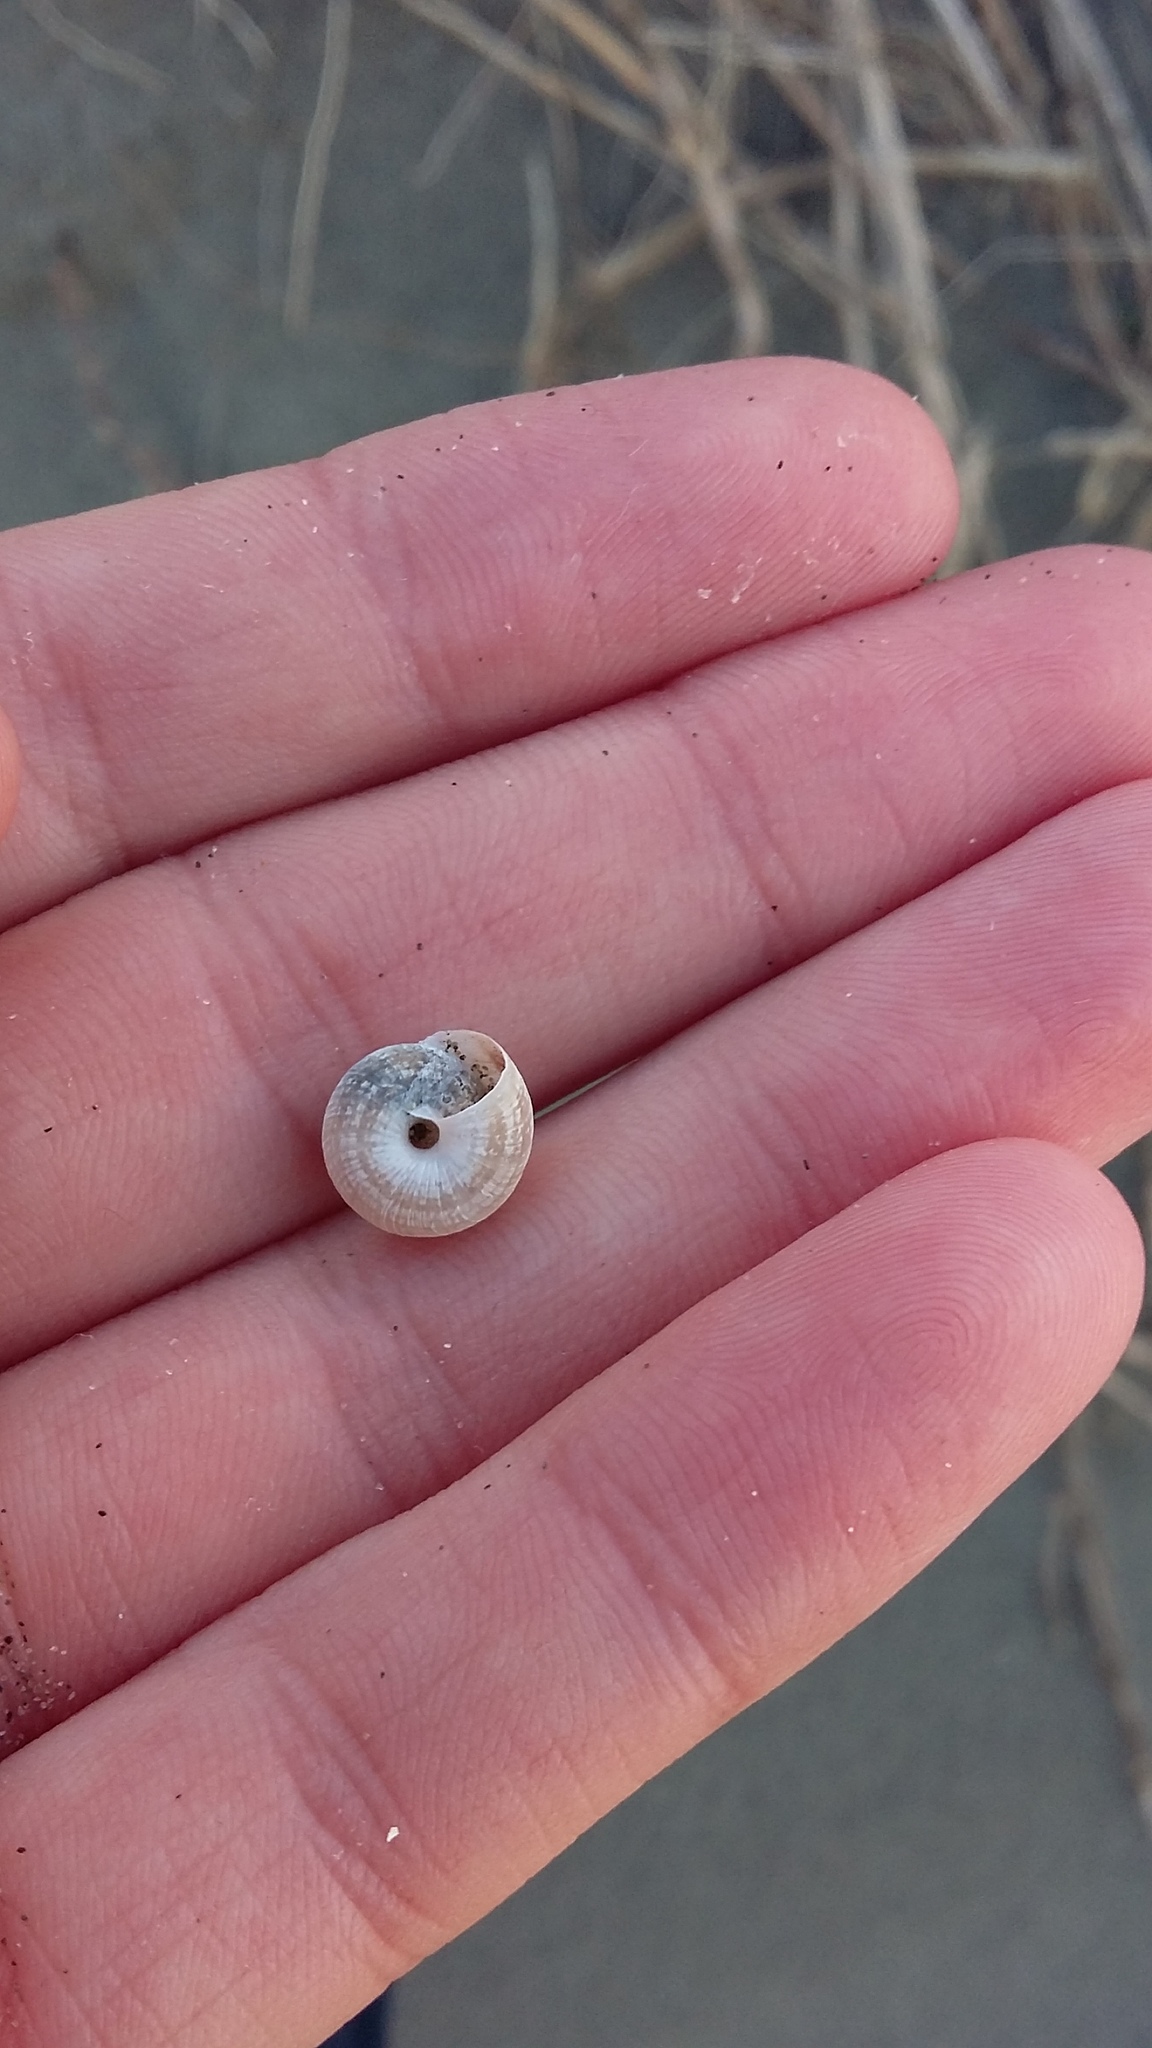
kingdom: Animalia
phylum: Mollusca
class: Gastropoda
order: Stylommatophora
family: Geomitridae
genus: Xeroplexa
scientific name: Xeroplexa intersecta
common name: Wrinkled snail
